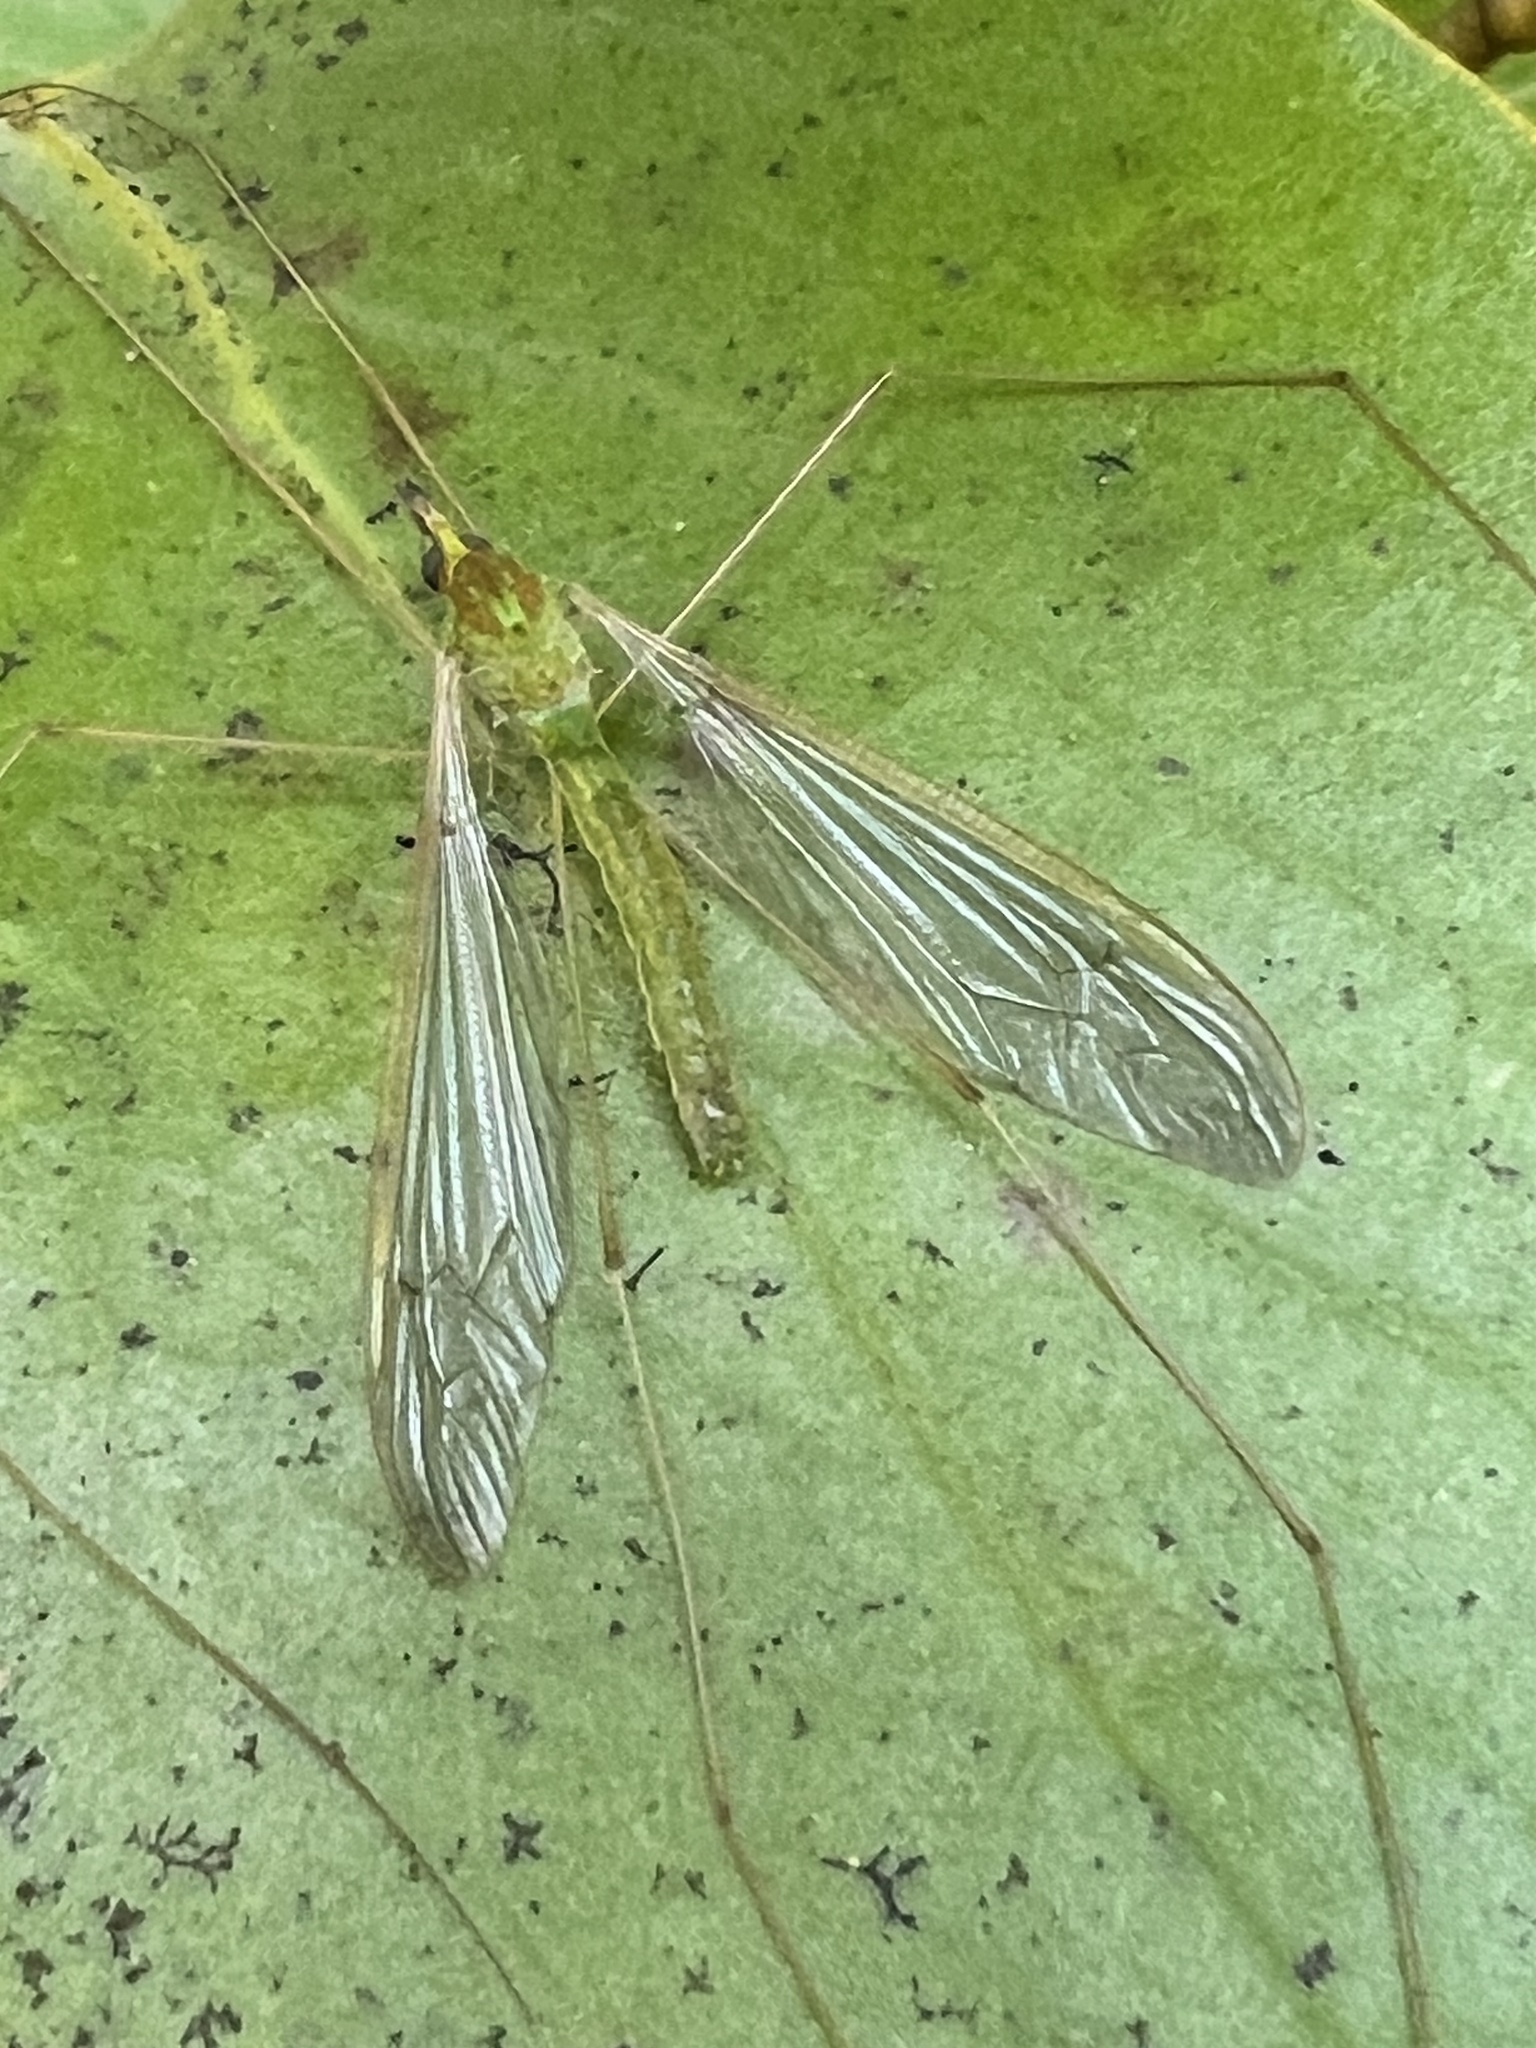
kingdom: Animalia
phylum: Arthropoda
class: Insecta
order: Diptera
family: Tipulidae
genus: Leptotarsus
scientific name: Leptotarsus virescens
